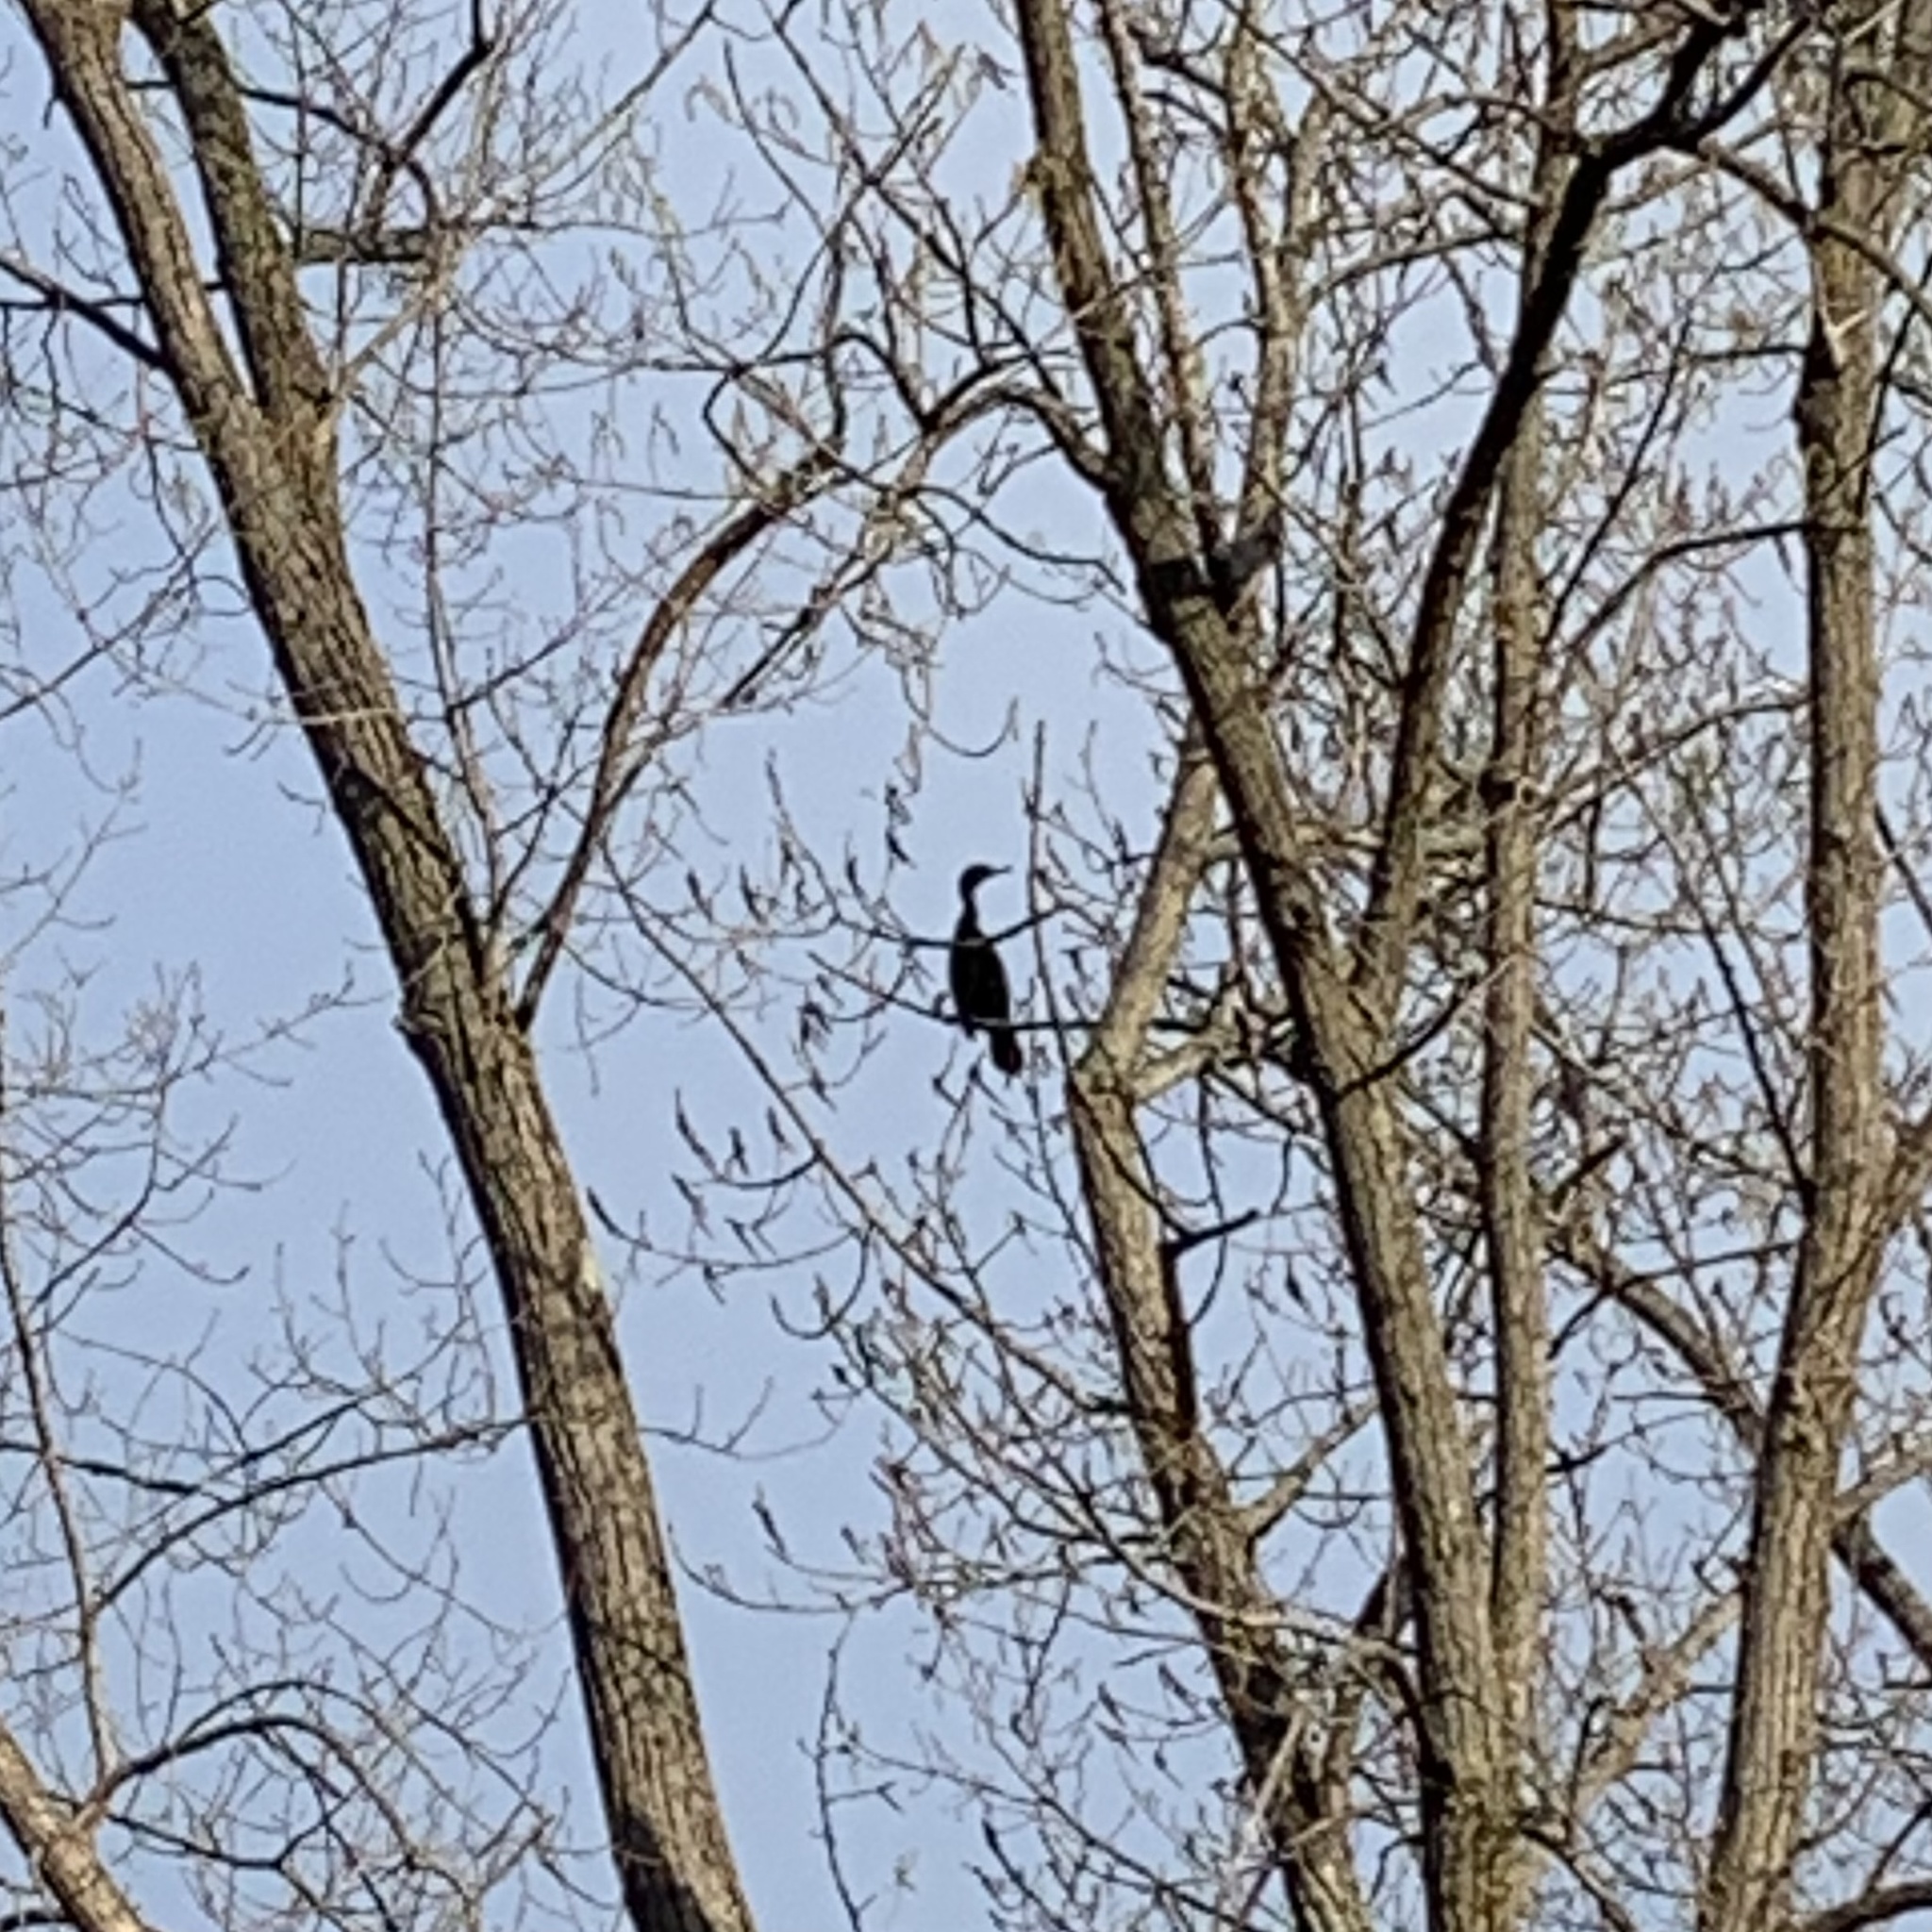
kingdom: Animalia
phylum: Chordata
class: Aves
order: Suliformes
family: Phalacrocoracidae
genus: Phalacrocorax
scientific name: Phalacrocorax auritus
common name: Double-crested cormorant
